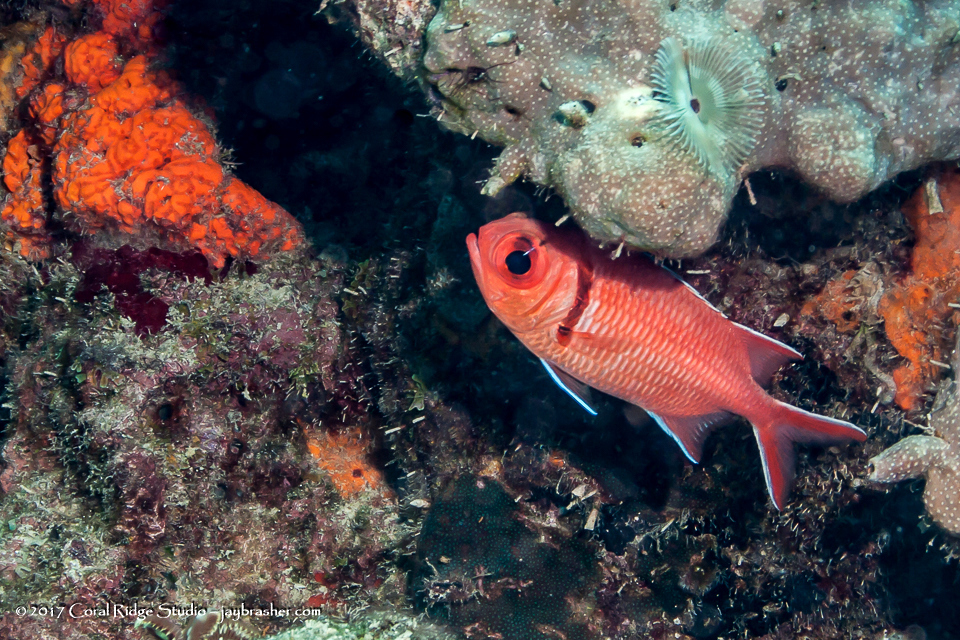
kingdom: Animalia
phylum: Chordata
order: Beryciformes
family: Holocentridae
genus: Myripristis
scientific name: Myripristis jacobus
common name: Blackbar soldierfish
